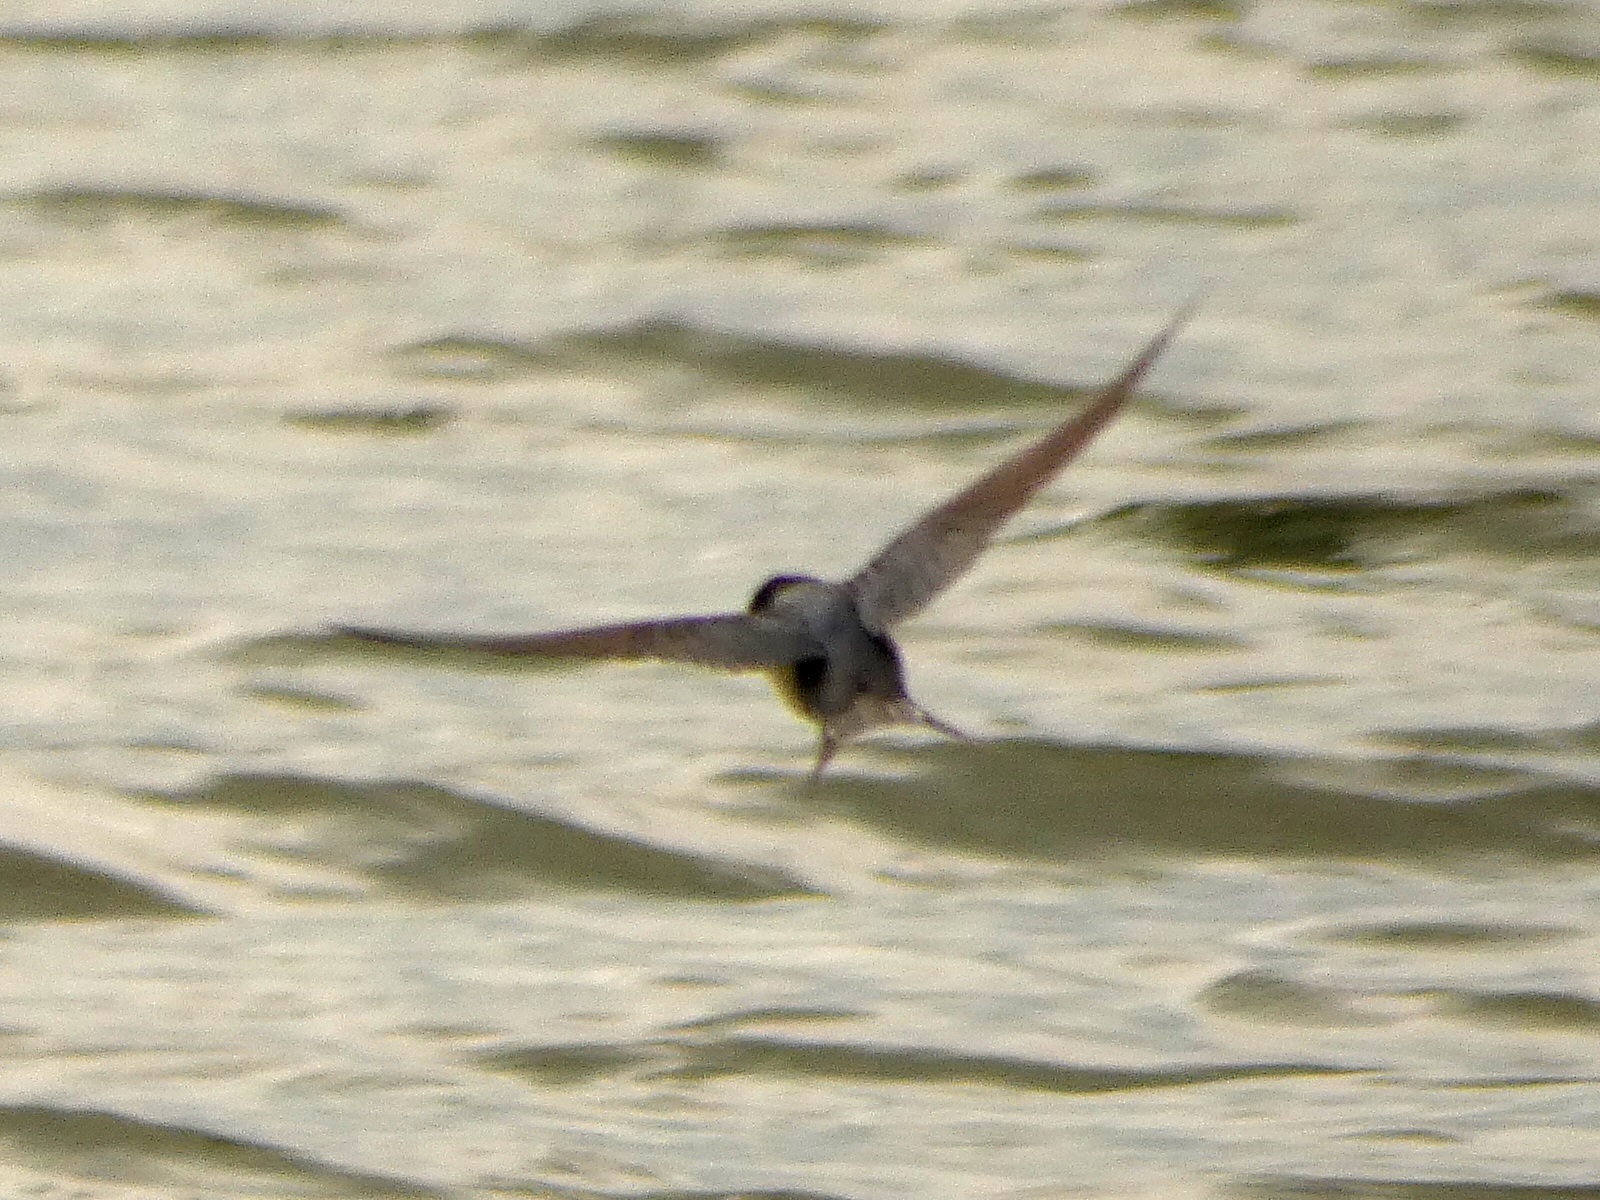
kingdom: Animalia
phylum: Chordata
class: Aves
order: Passeriformes
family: Hirundinidae
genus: Hirundo
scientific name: Hirundo rustica
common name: Barn swallow
